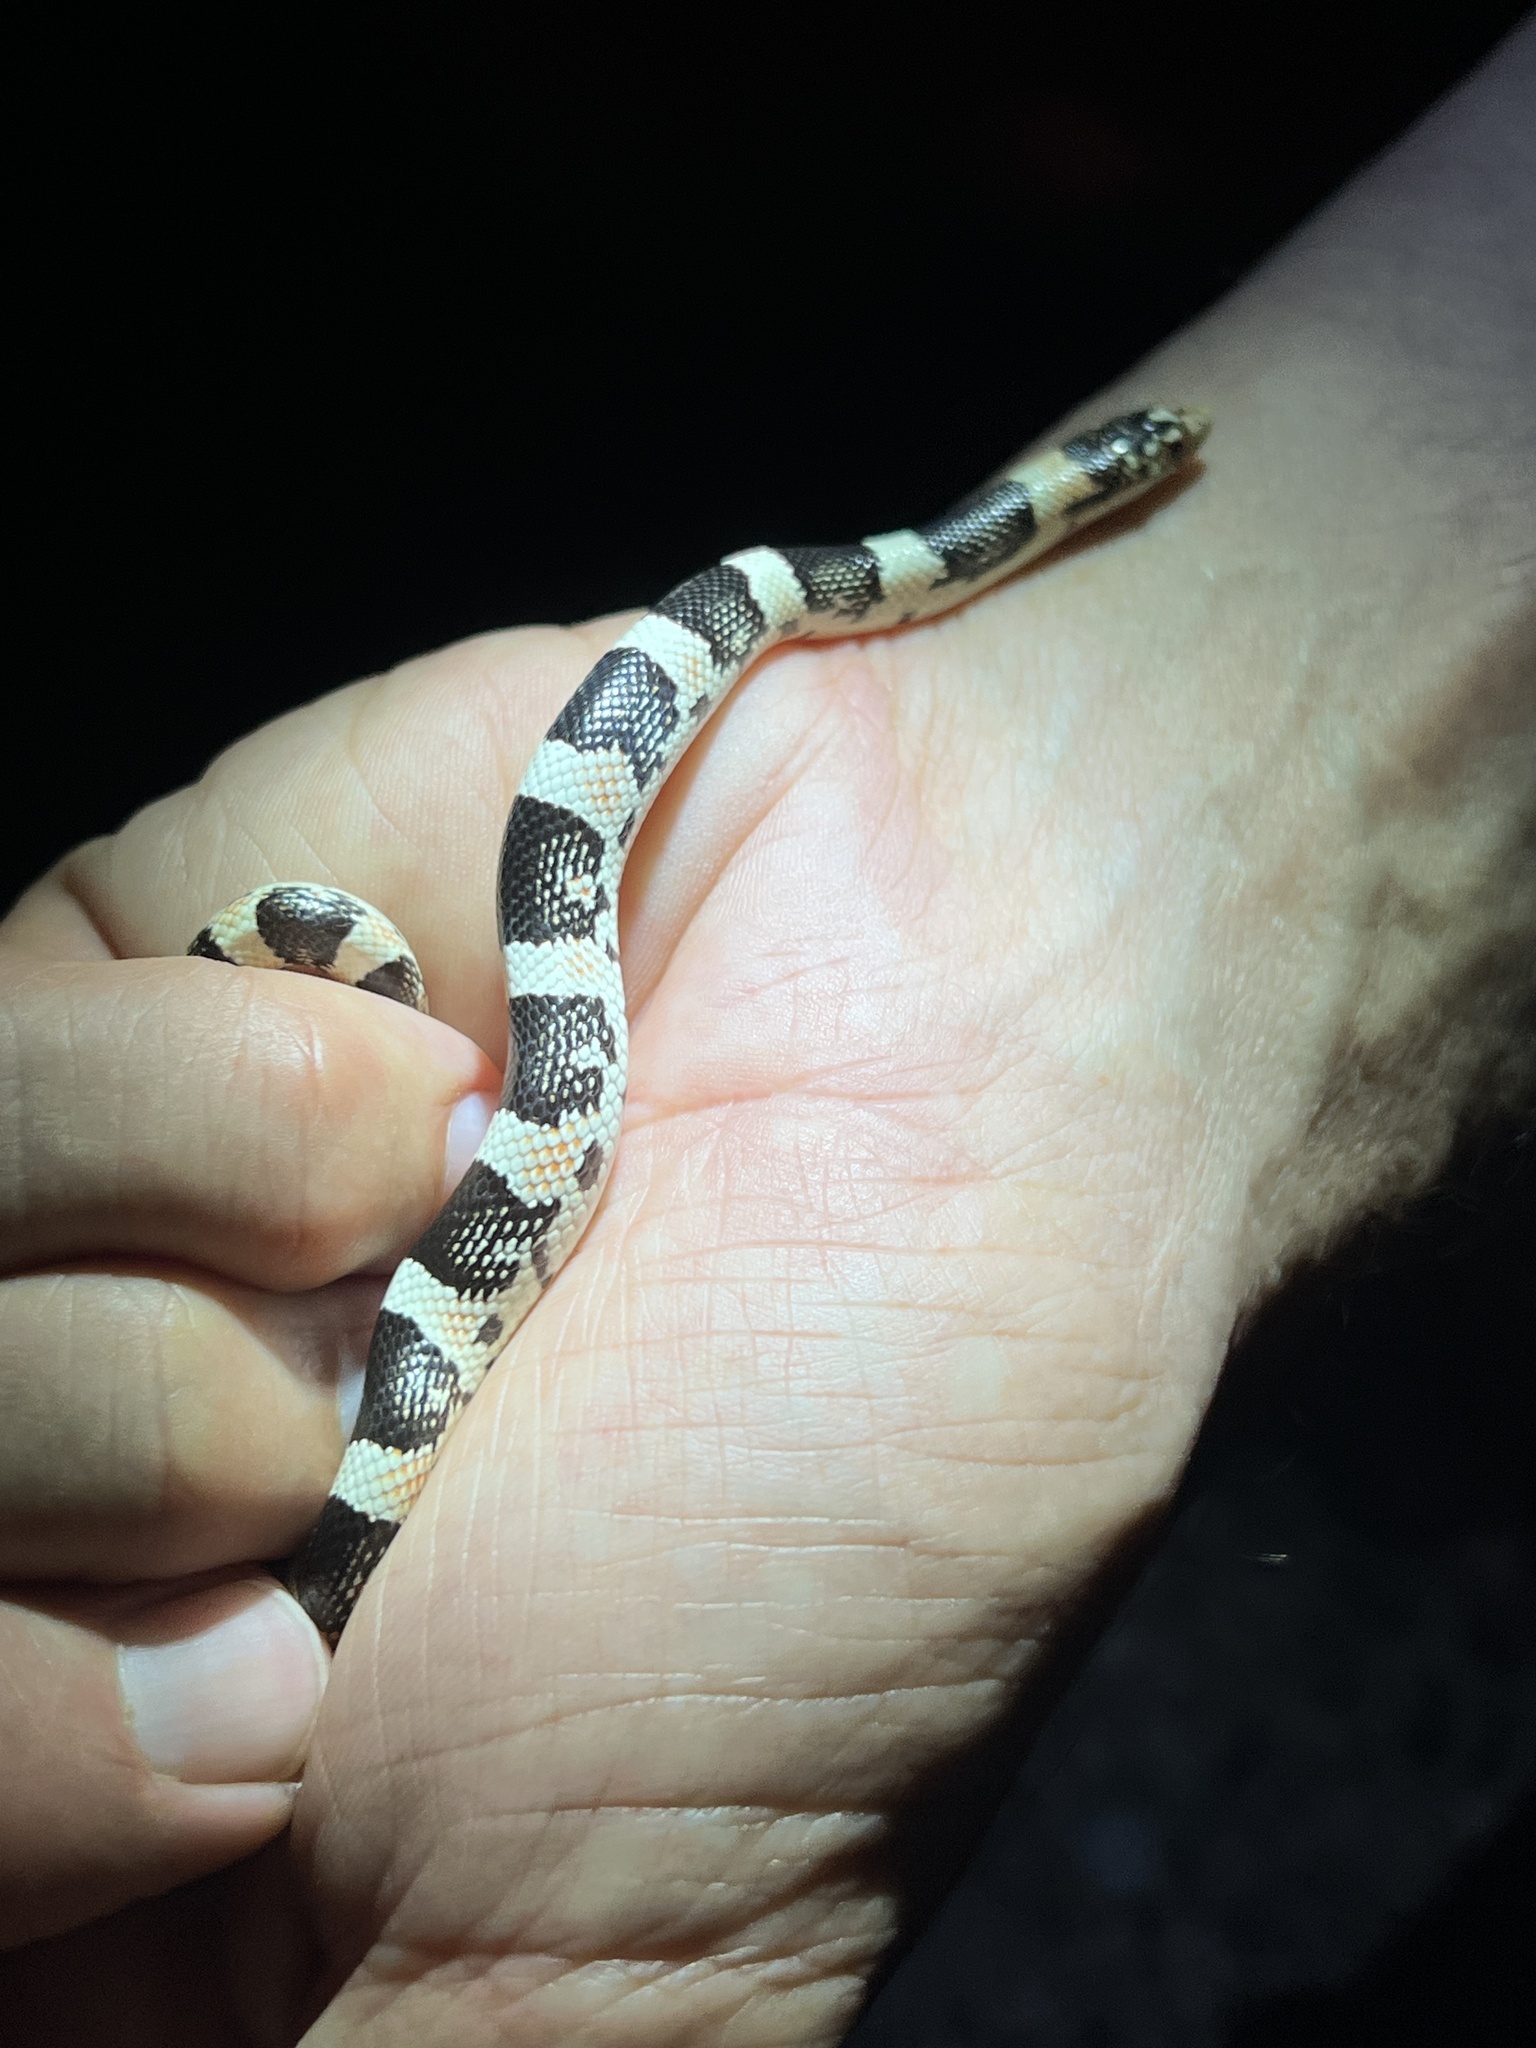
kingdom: Animalia
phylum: Chordata
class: Squamata
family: Colubridae
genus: Rhinocheilus
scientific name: Rhinocheilus lecontei
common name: Longnose snake
